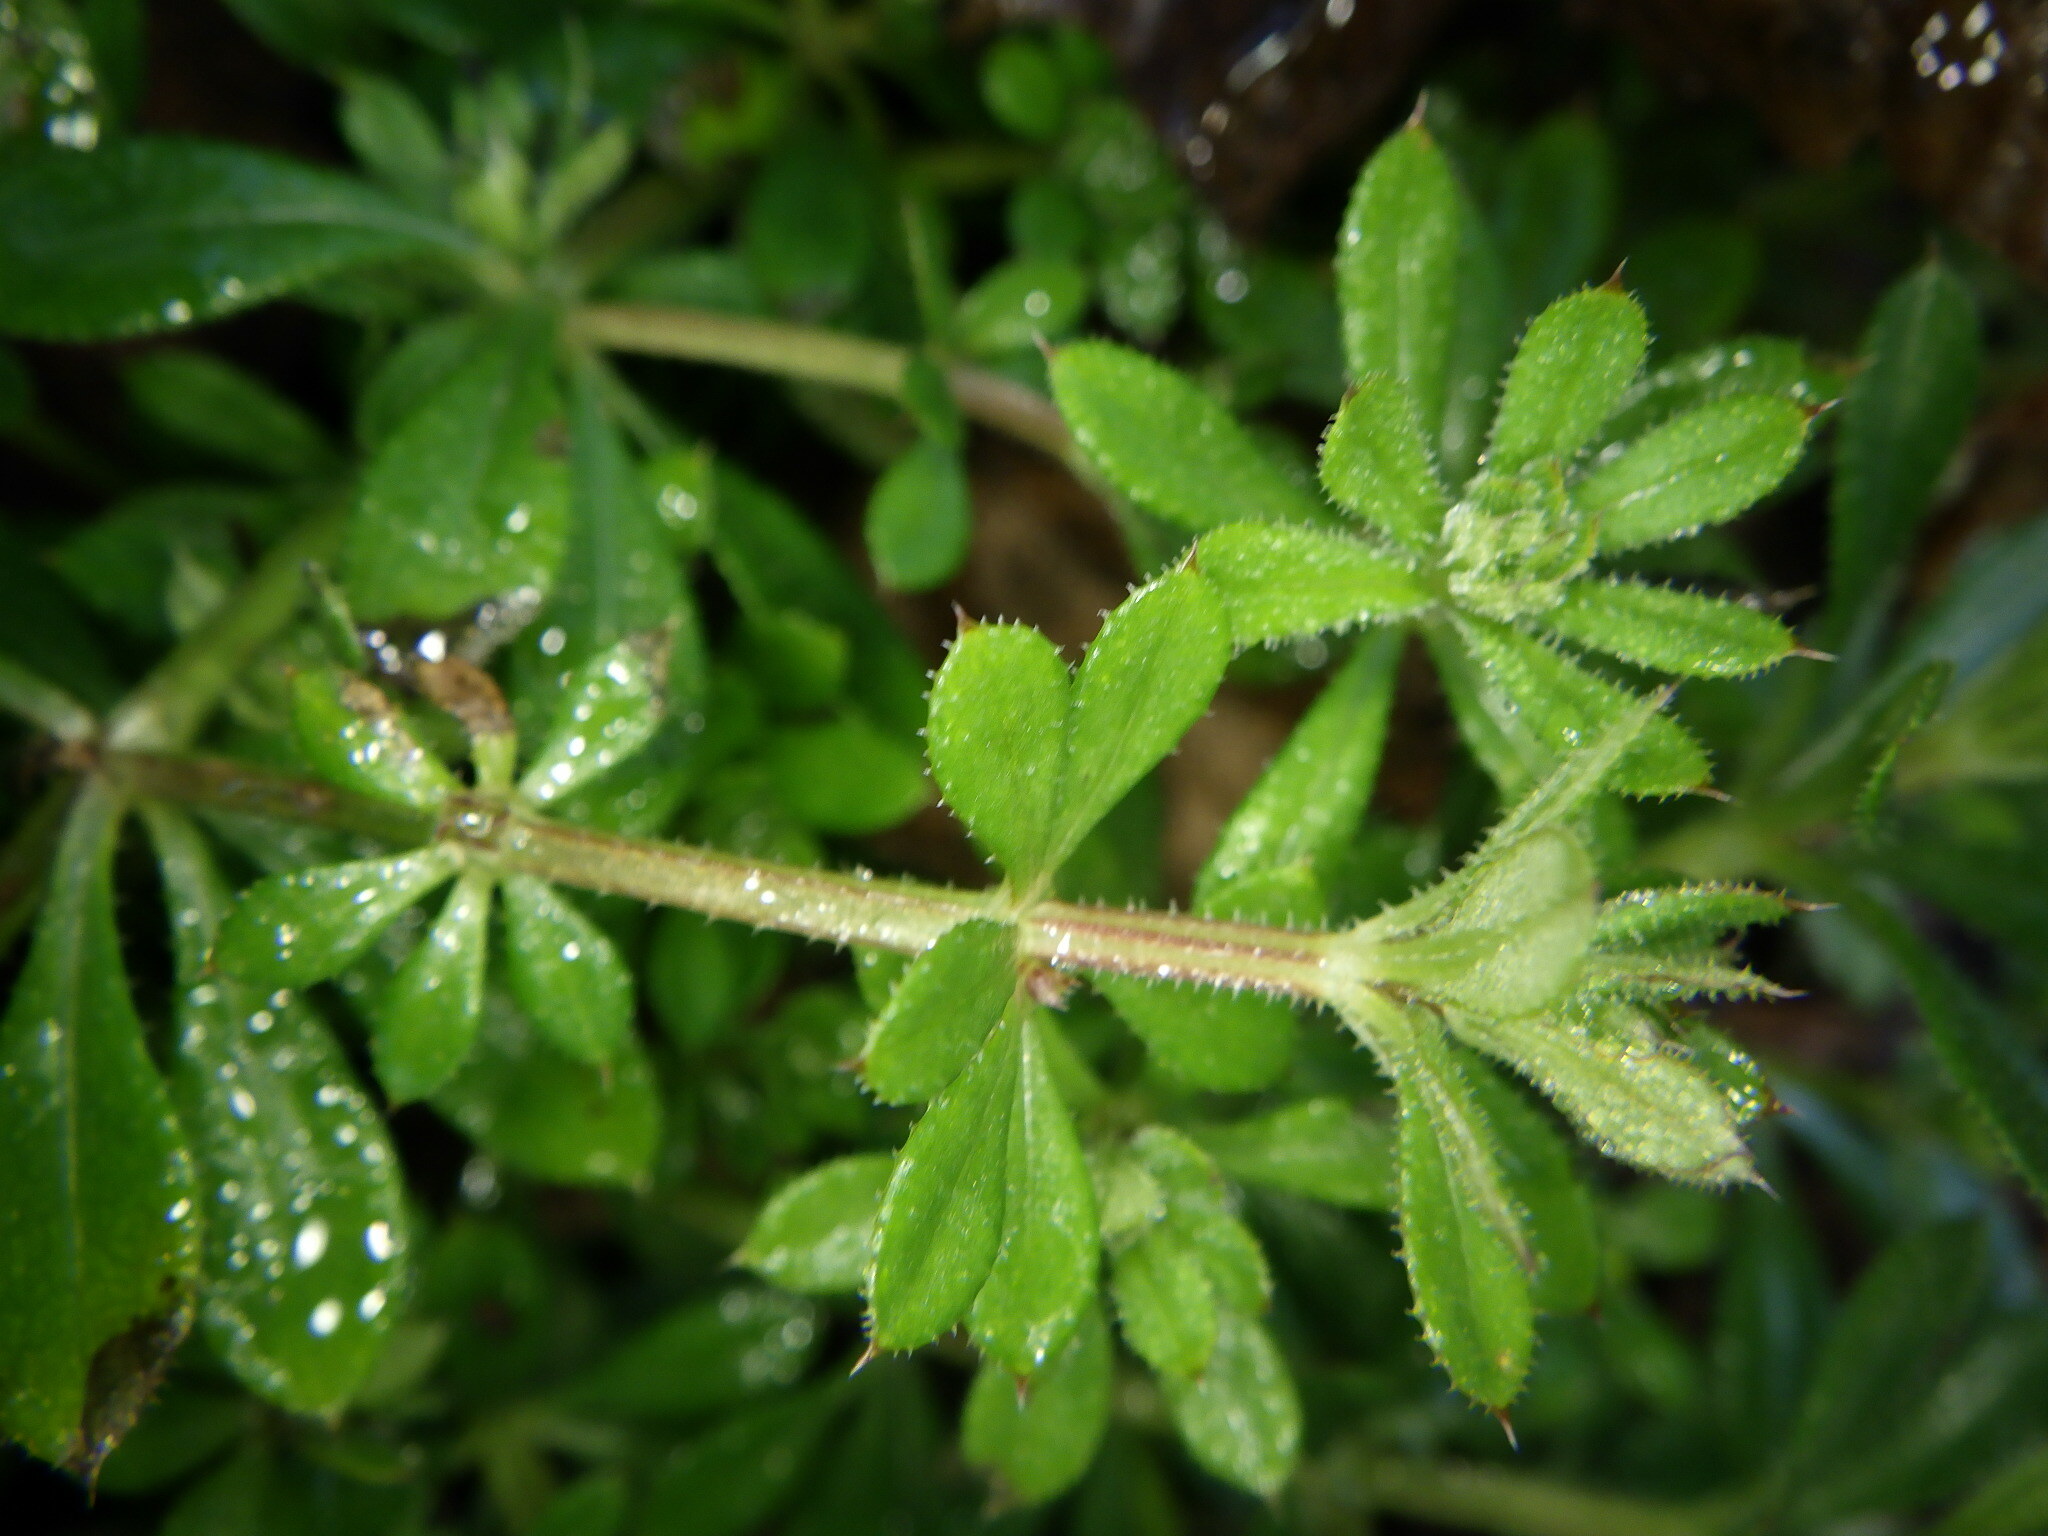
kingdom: Plantae
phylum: Tracheophyta
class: Magnoliopsida
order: Gentianales
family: Rubiaceae
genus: Galium
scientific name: Galium aparine
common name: Cleavers
